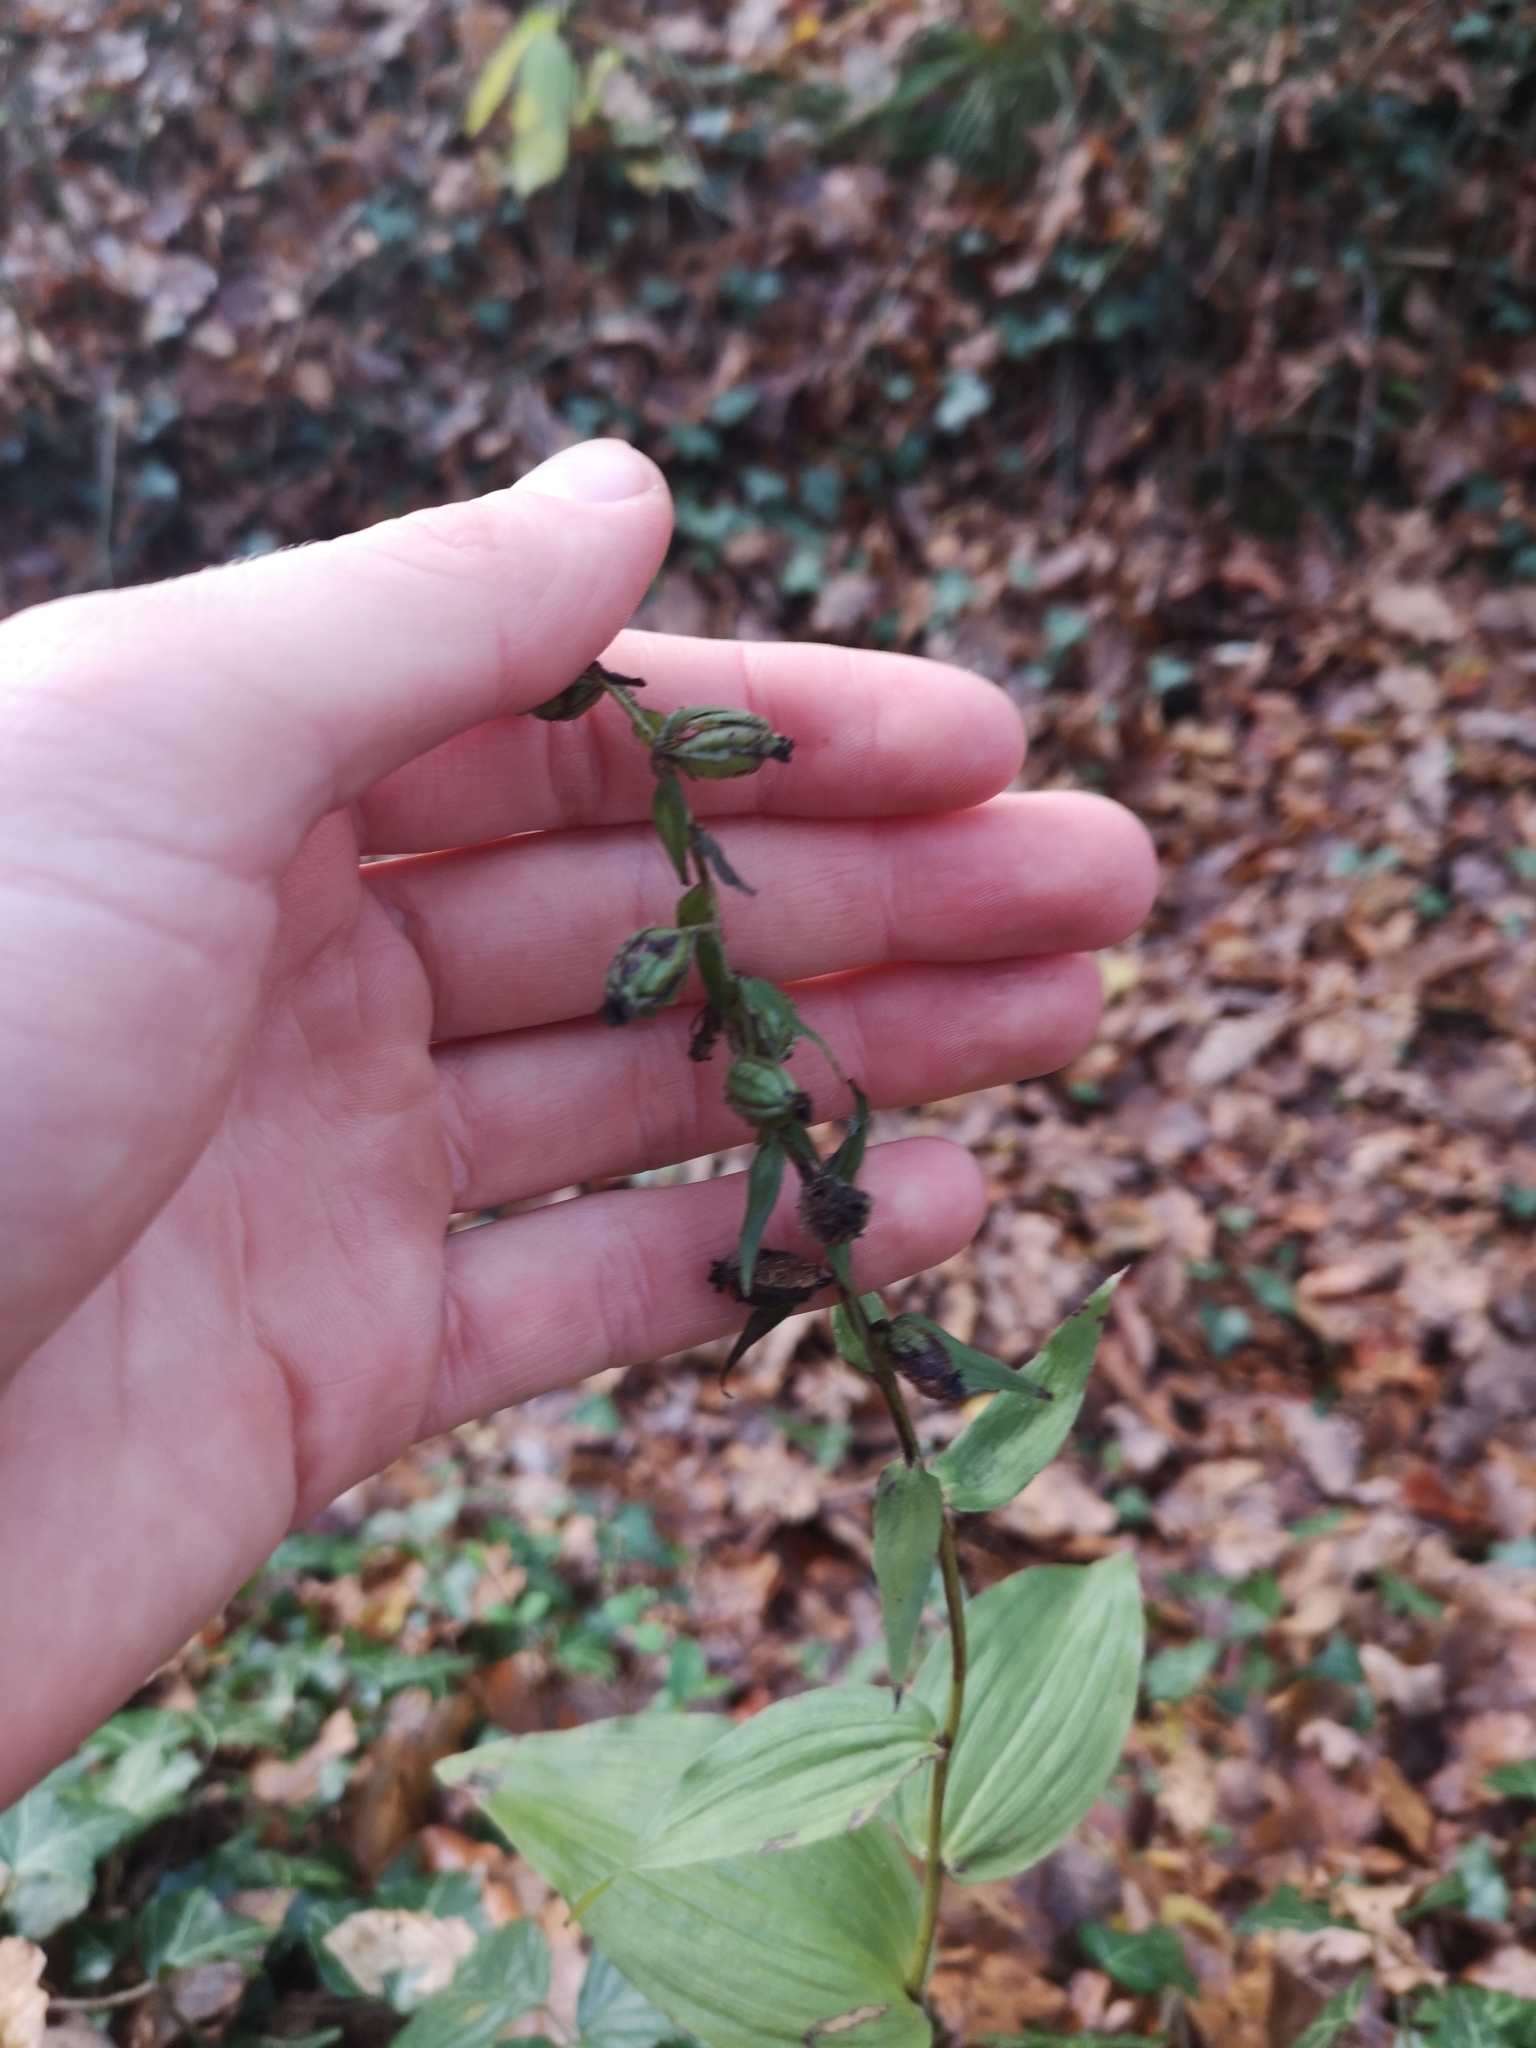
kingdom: Plantae
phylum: Tracheophyta
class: Liliopsida
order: Asparagales
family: Orchidaceae
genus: Epipactis
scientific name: Epipactis helleborine
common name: Broad-leaved helleborine
